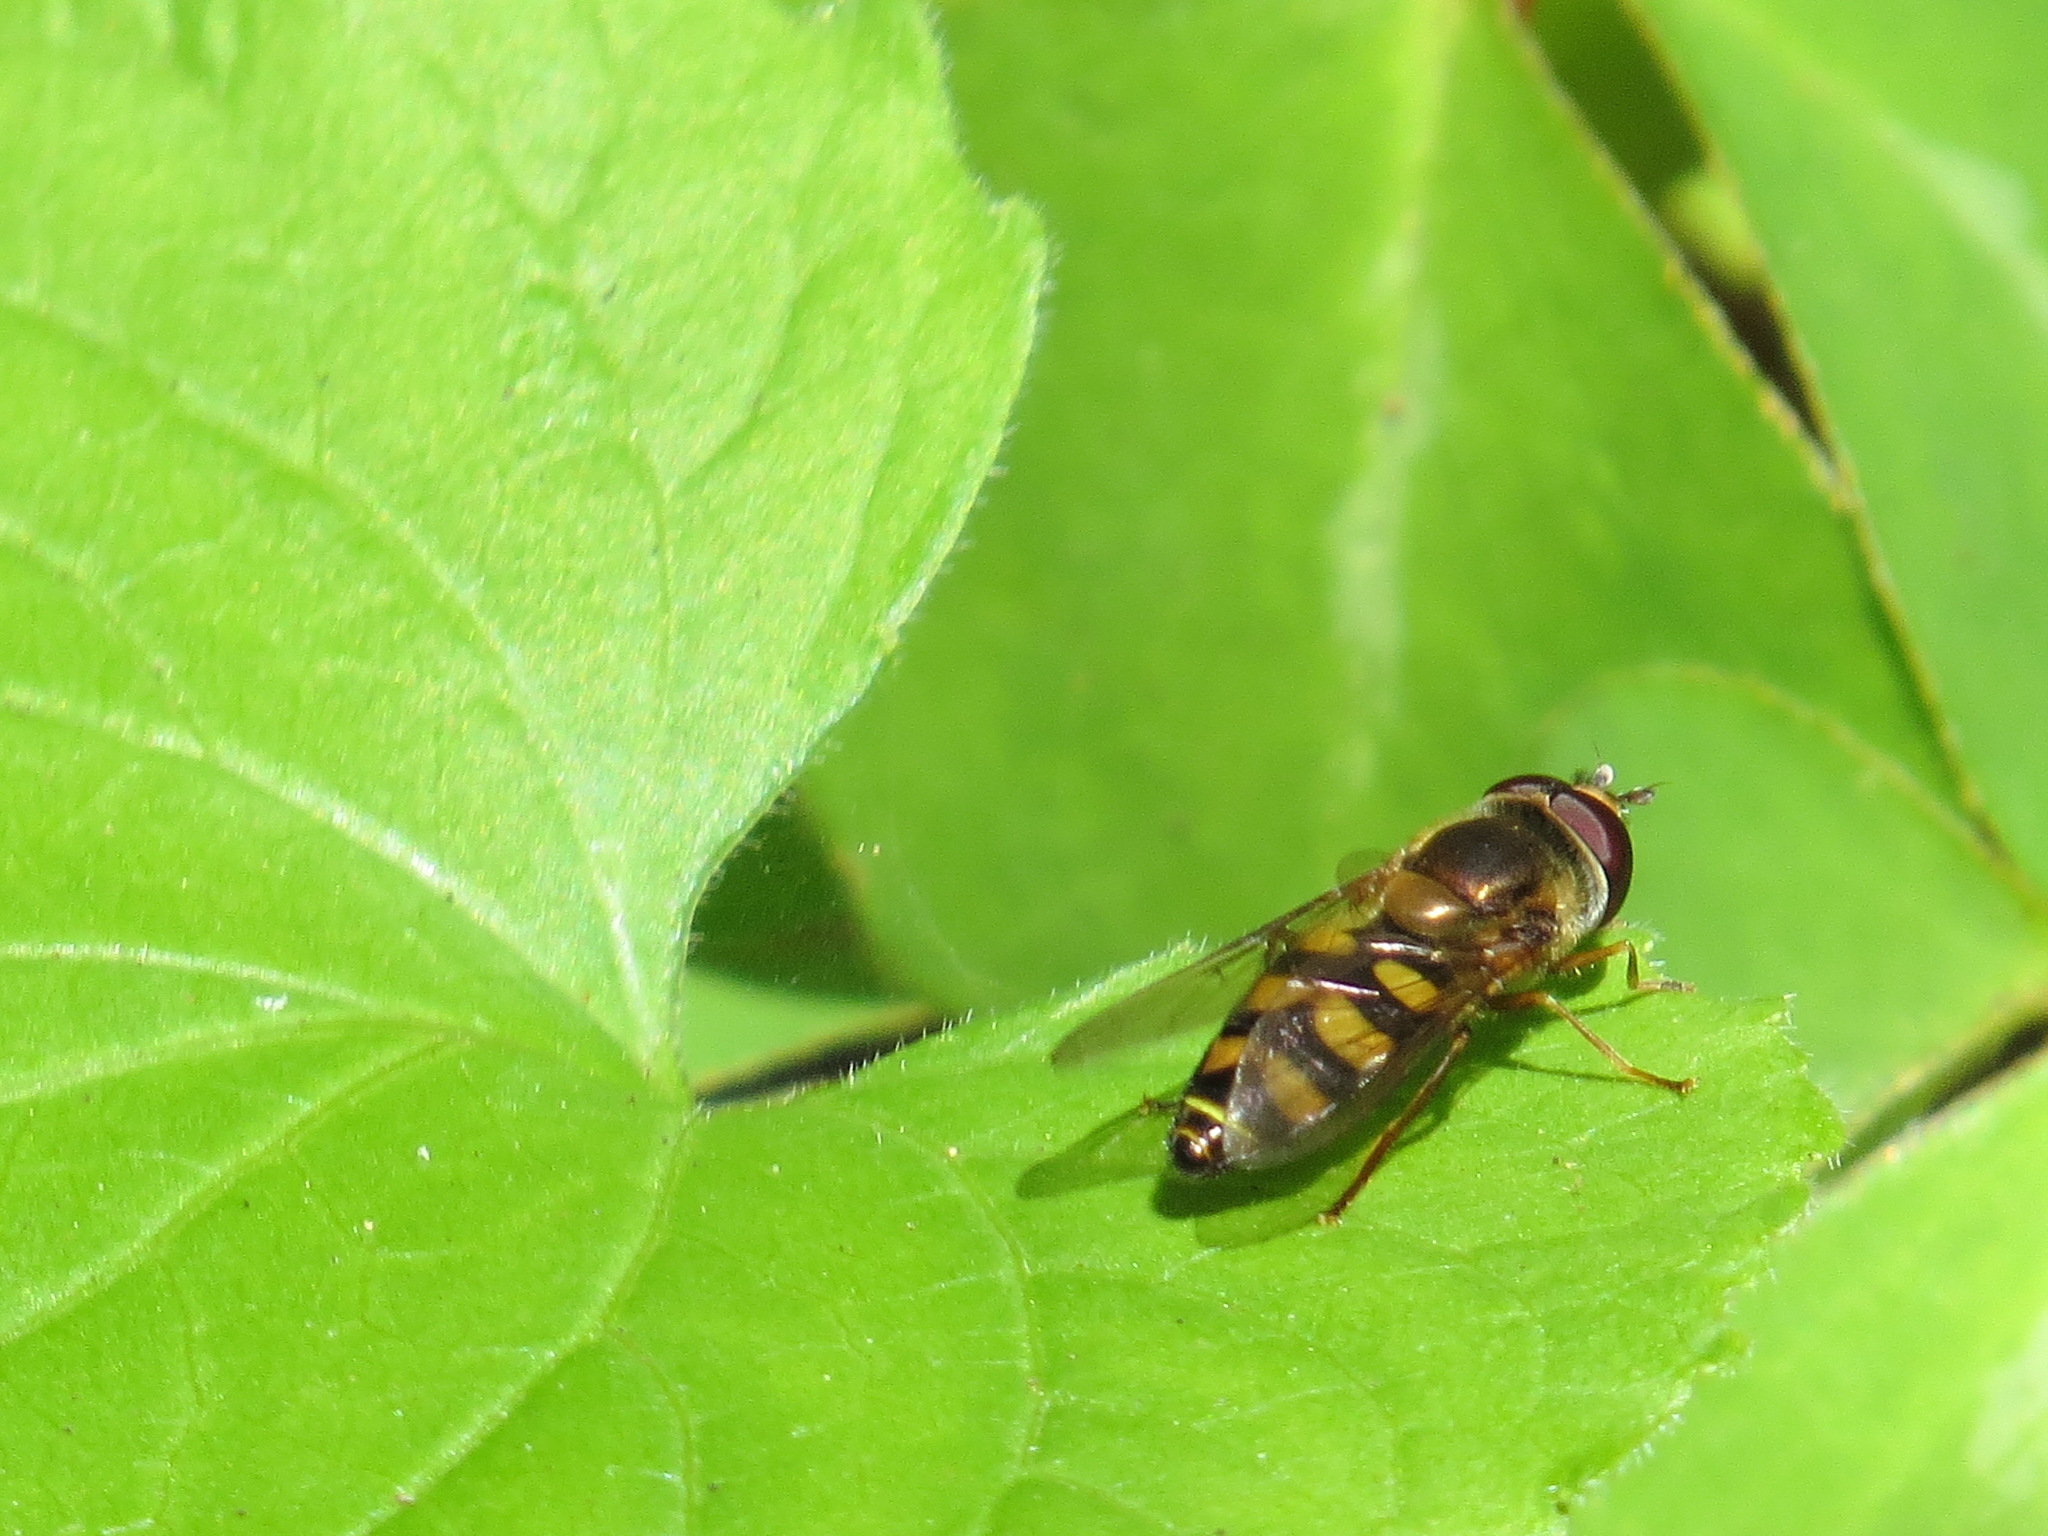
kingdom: Animalia
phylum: Arthropoda
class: Insecta
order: Diptera
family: Syrphidae
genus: Eupeodes
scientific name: Eupeodes fumipennis
